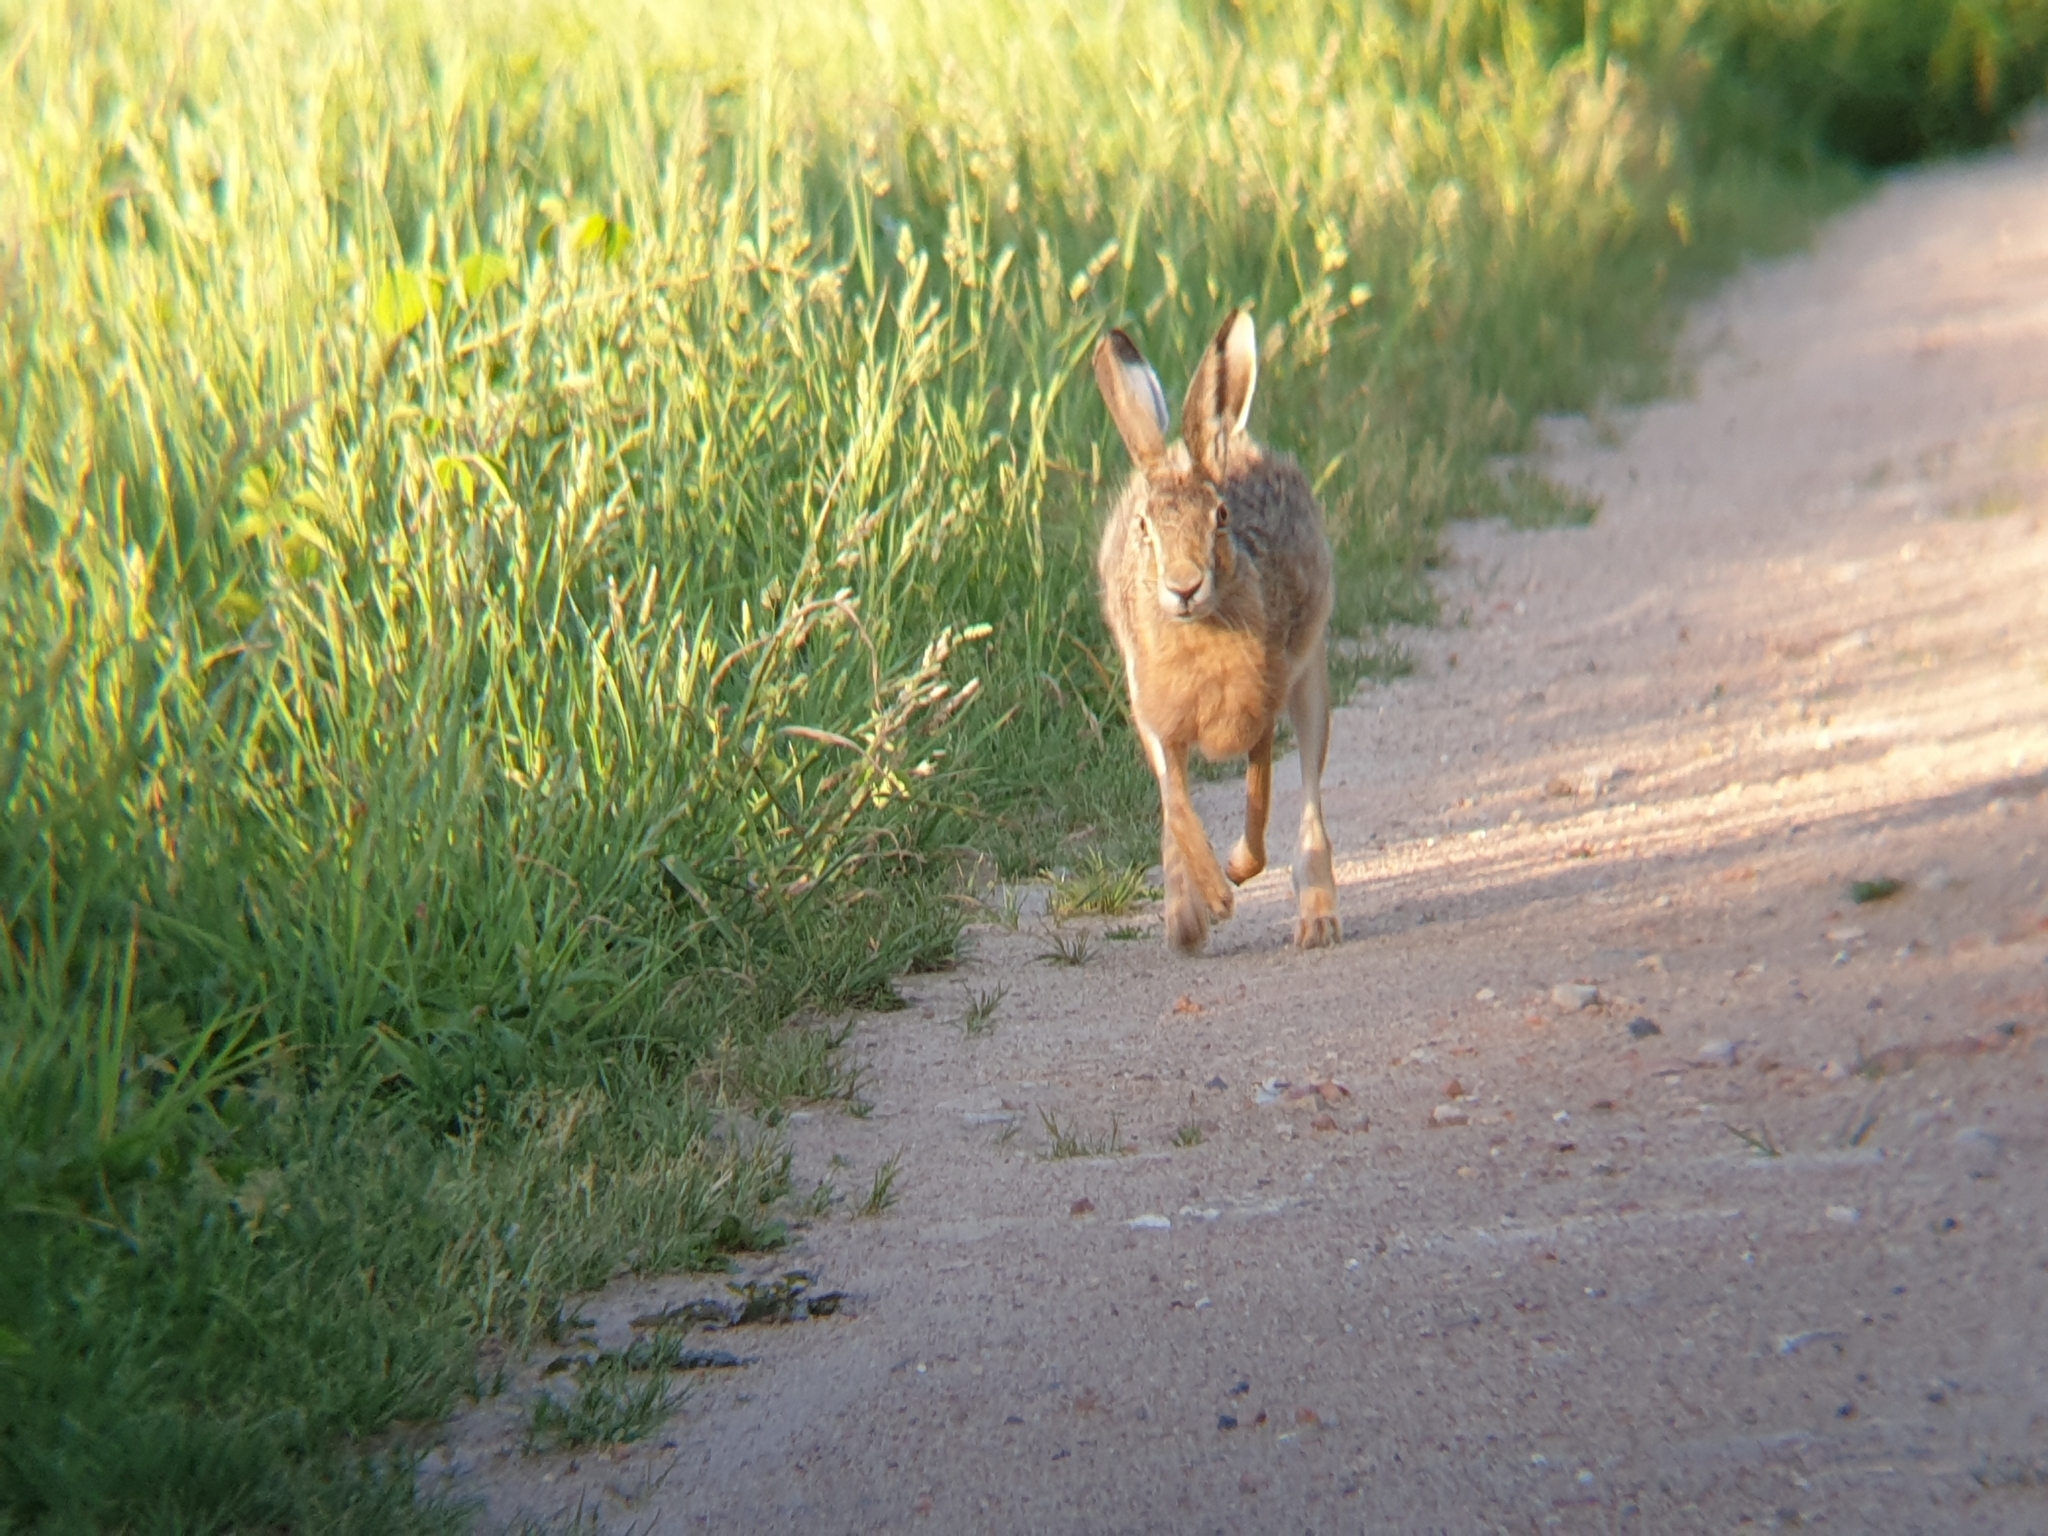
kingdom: Animalia
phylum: Chordata
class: Mammalia
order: Lagomorpha
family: Leporidae
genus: Lepus
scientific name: Lepus europaeus
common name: European hare
